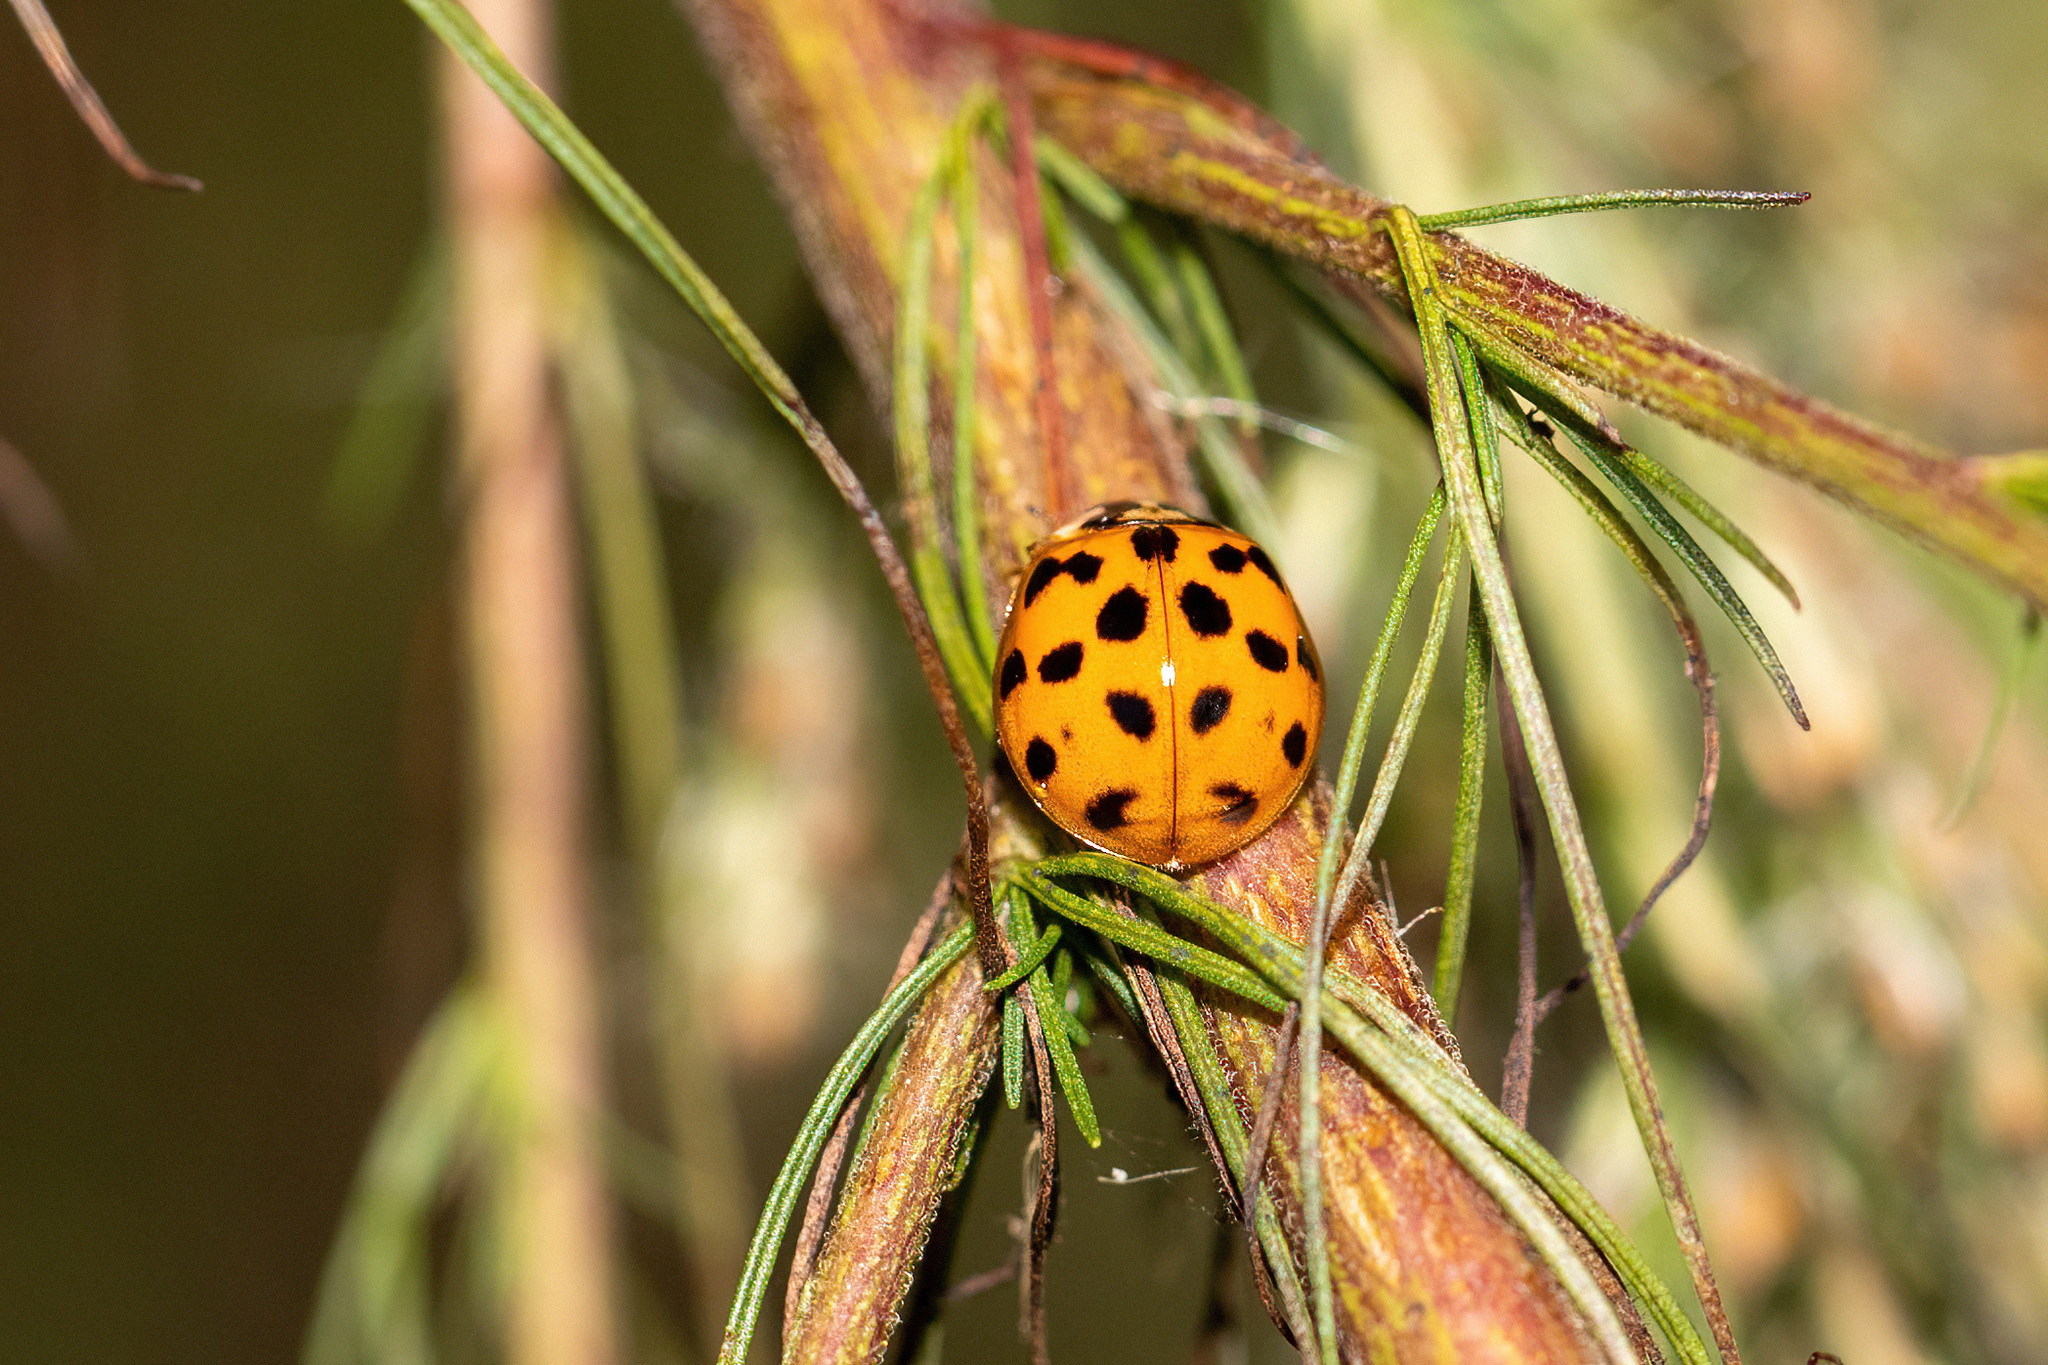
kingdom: Animalia
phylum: Arthropoda
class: Insecta
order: Coleoptera
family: Coccinellidae
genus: Harmonia
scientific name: Harmonia axyridis
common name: Harlequin ladybird
